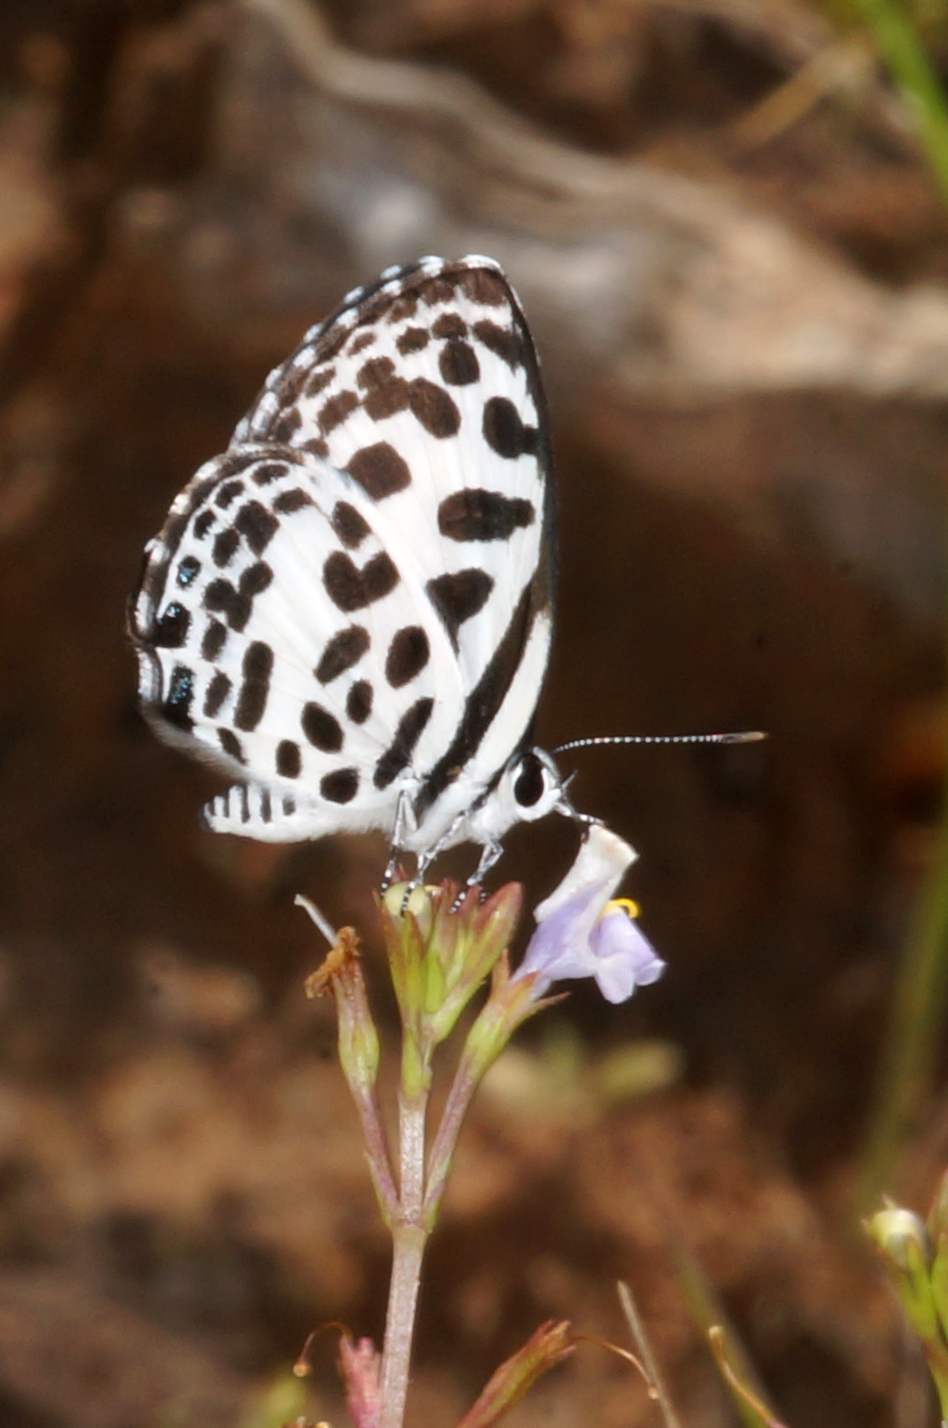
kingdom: Animalia
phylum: Arthropoda
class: Insecta
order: Lepidoptera
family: Lycaenidae
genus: Castalius
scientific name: Castalius rosimon
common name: Common pierrot
